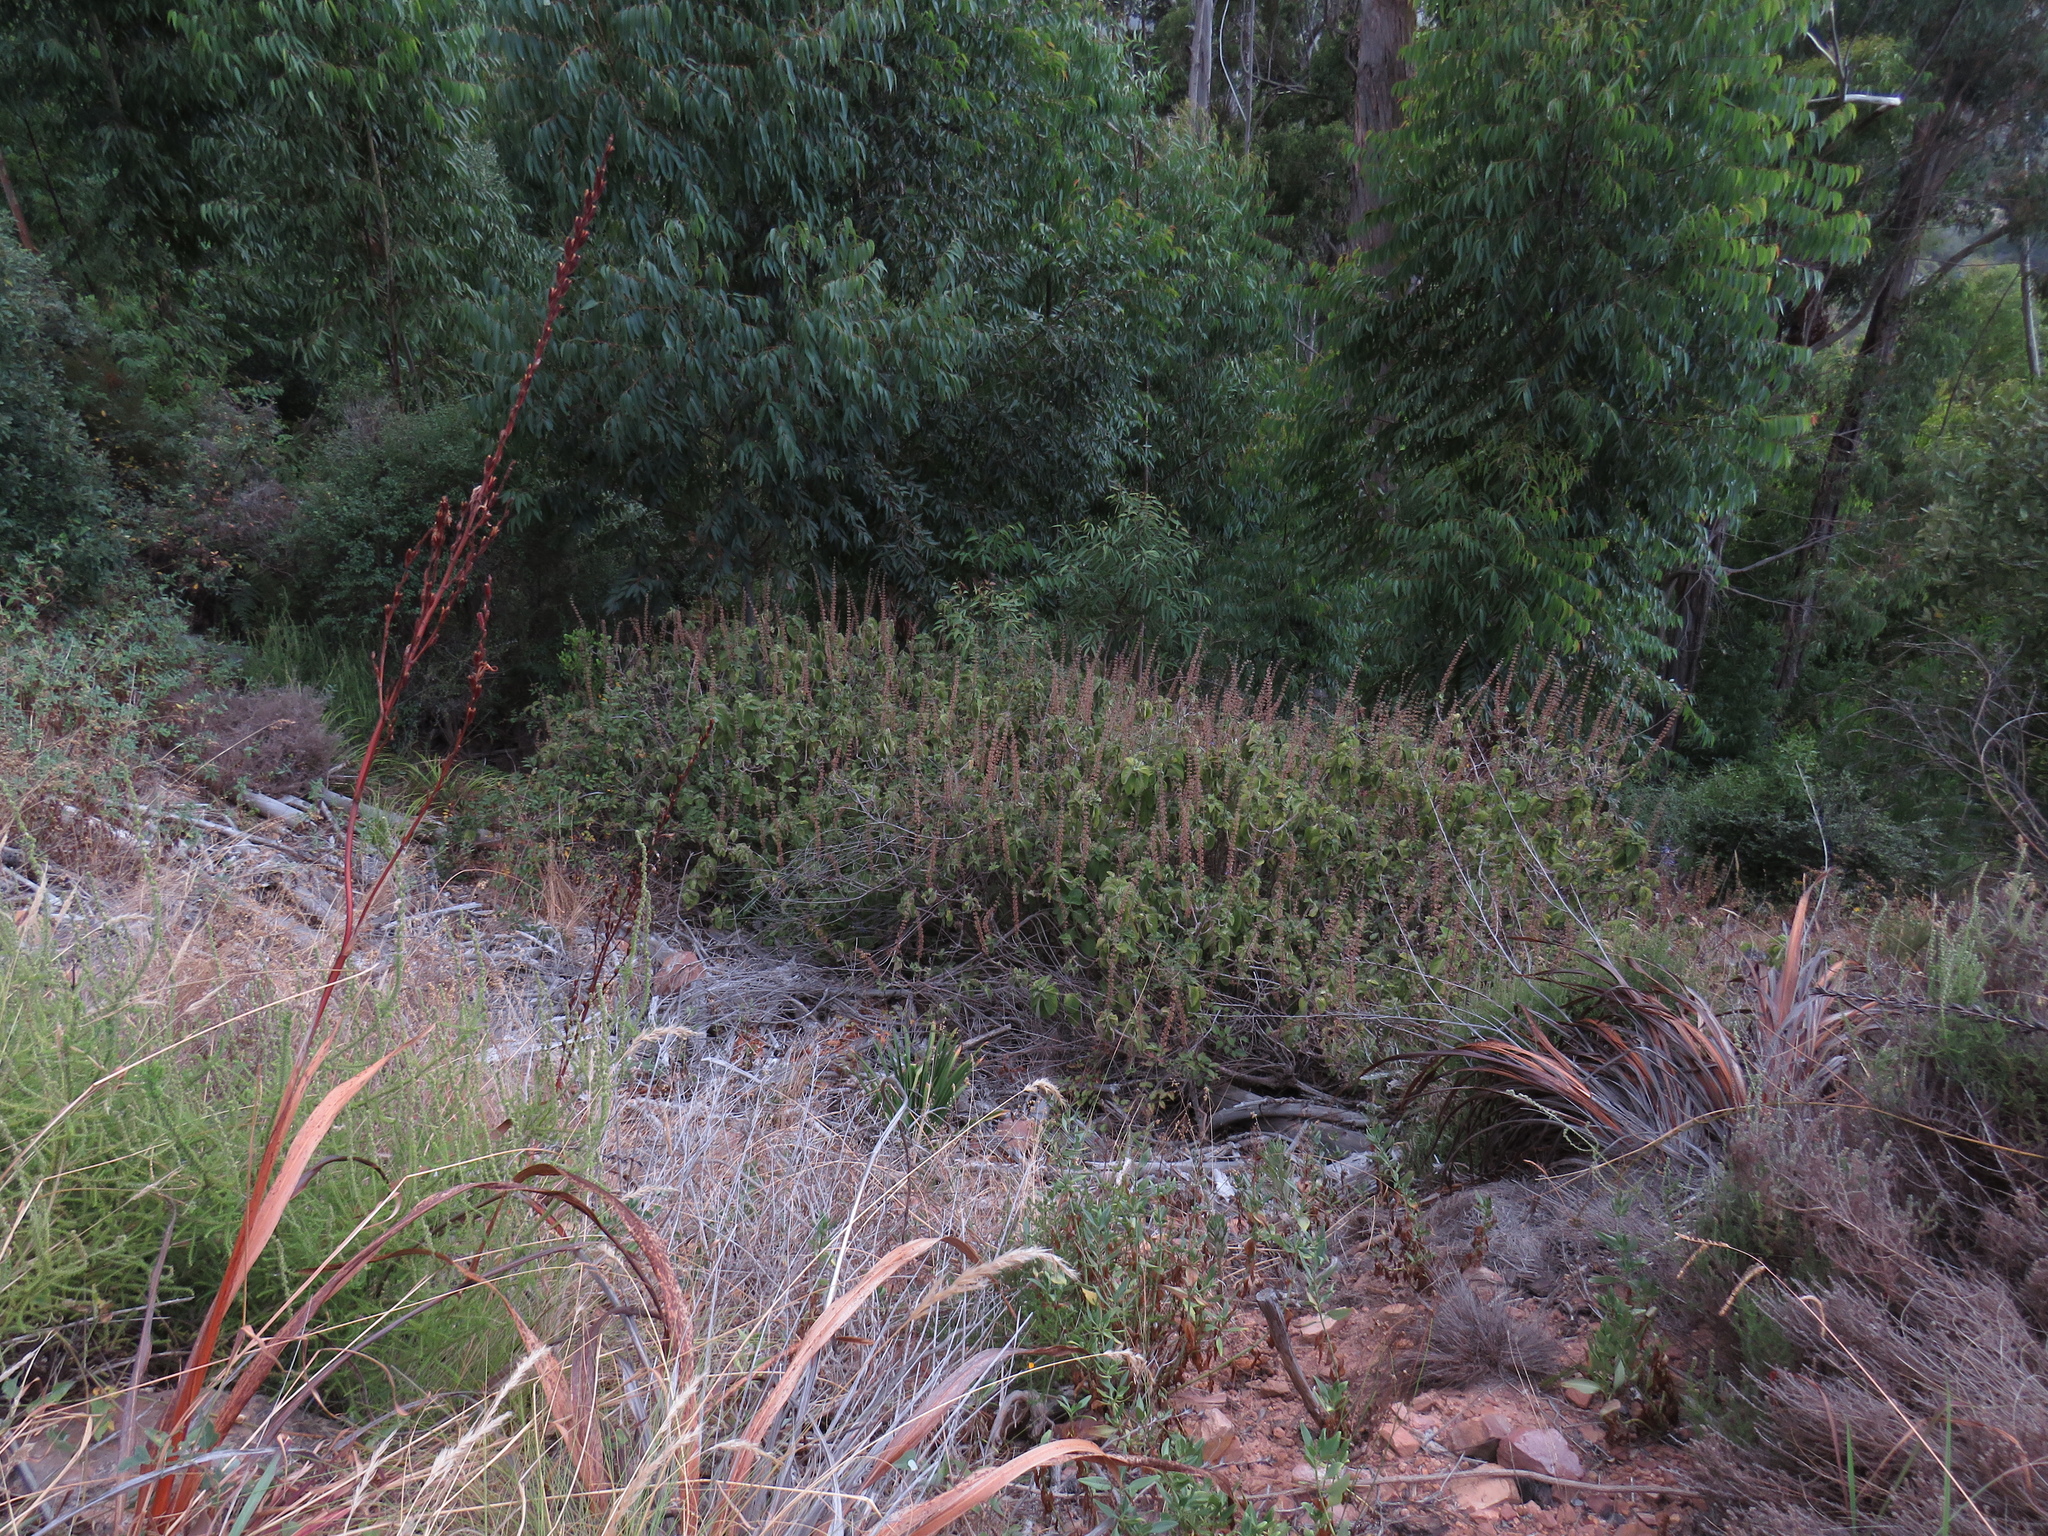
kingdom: Plantae
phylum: Tracheophyta
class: Magnoliopsida
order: Lamiales
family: Lamiaceae
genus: Coleus
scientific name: Coleus barbatus
